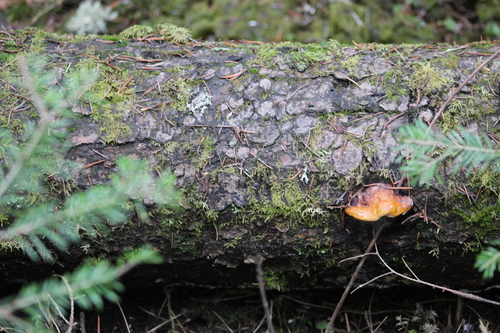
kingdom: Fungi
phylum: Basidiomycota
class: Agaricomycetes
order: Polyporales
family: Fomitopsidaceae
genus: Fomitopsis
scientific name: Fomitopsis pinicola
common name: Red-belted bracket
